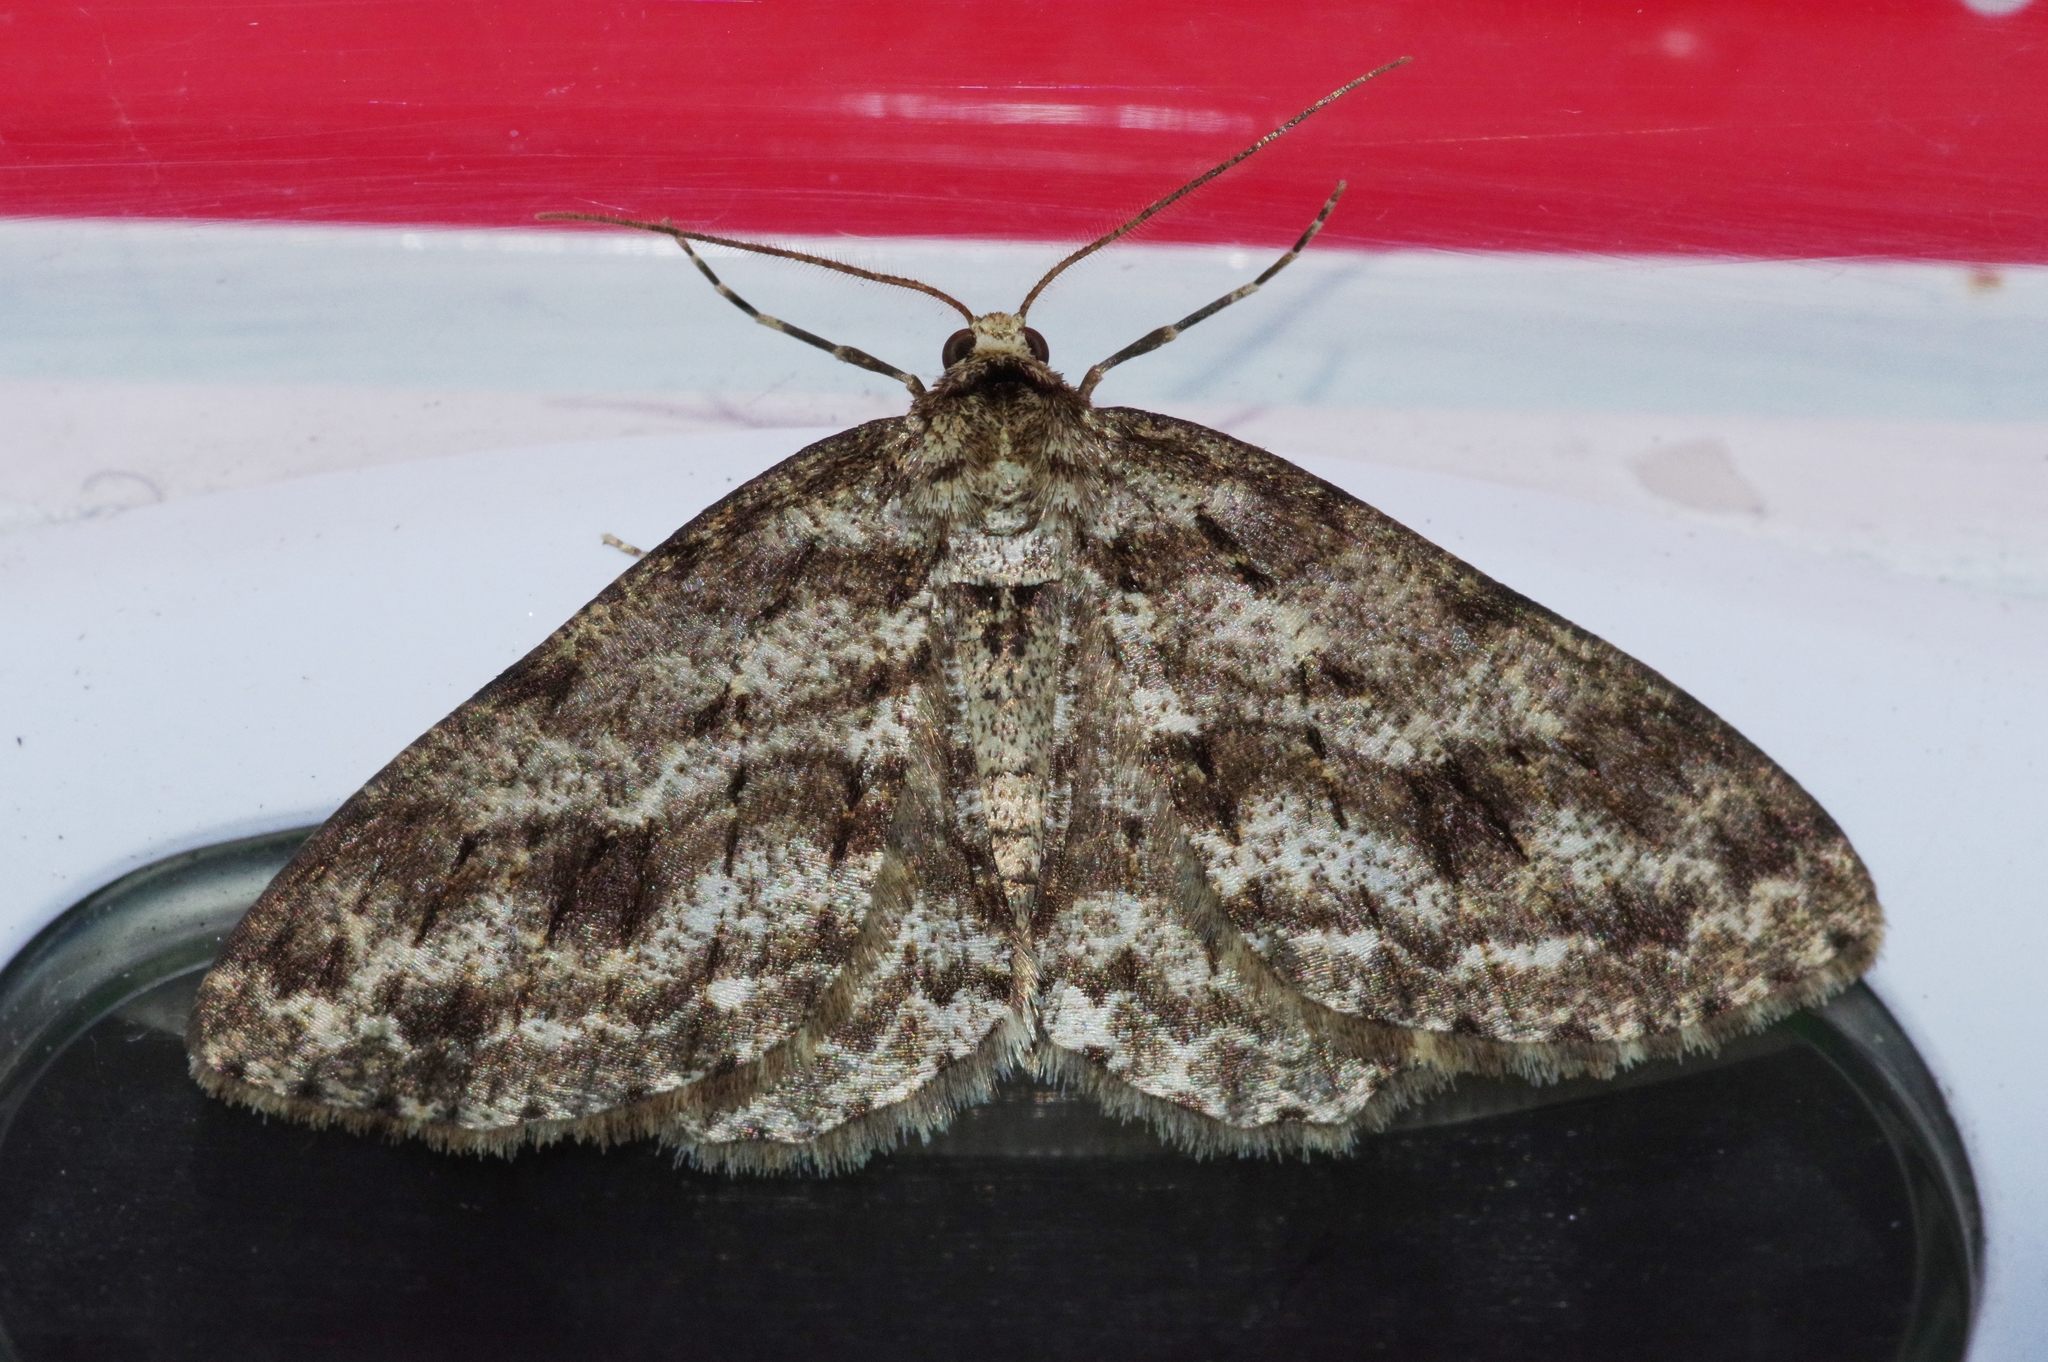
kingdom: Animalia
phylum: Arthropoda
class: Insecta
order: Lepidoptera
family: Geometridae
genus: Ectropis
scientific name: Ectropis crepuscularia
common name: Engrailed
